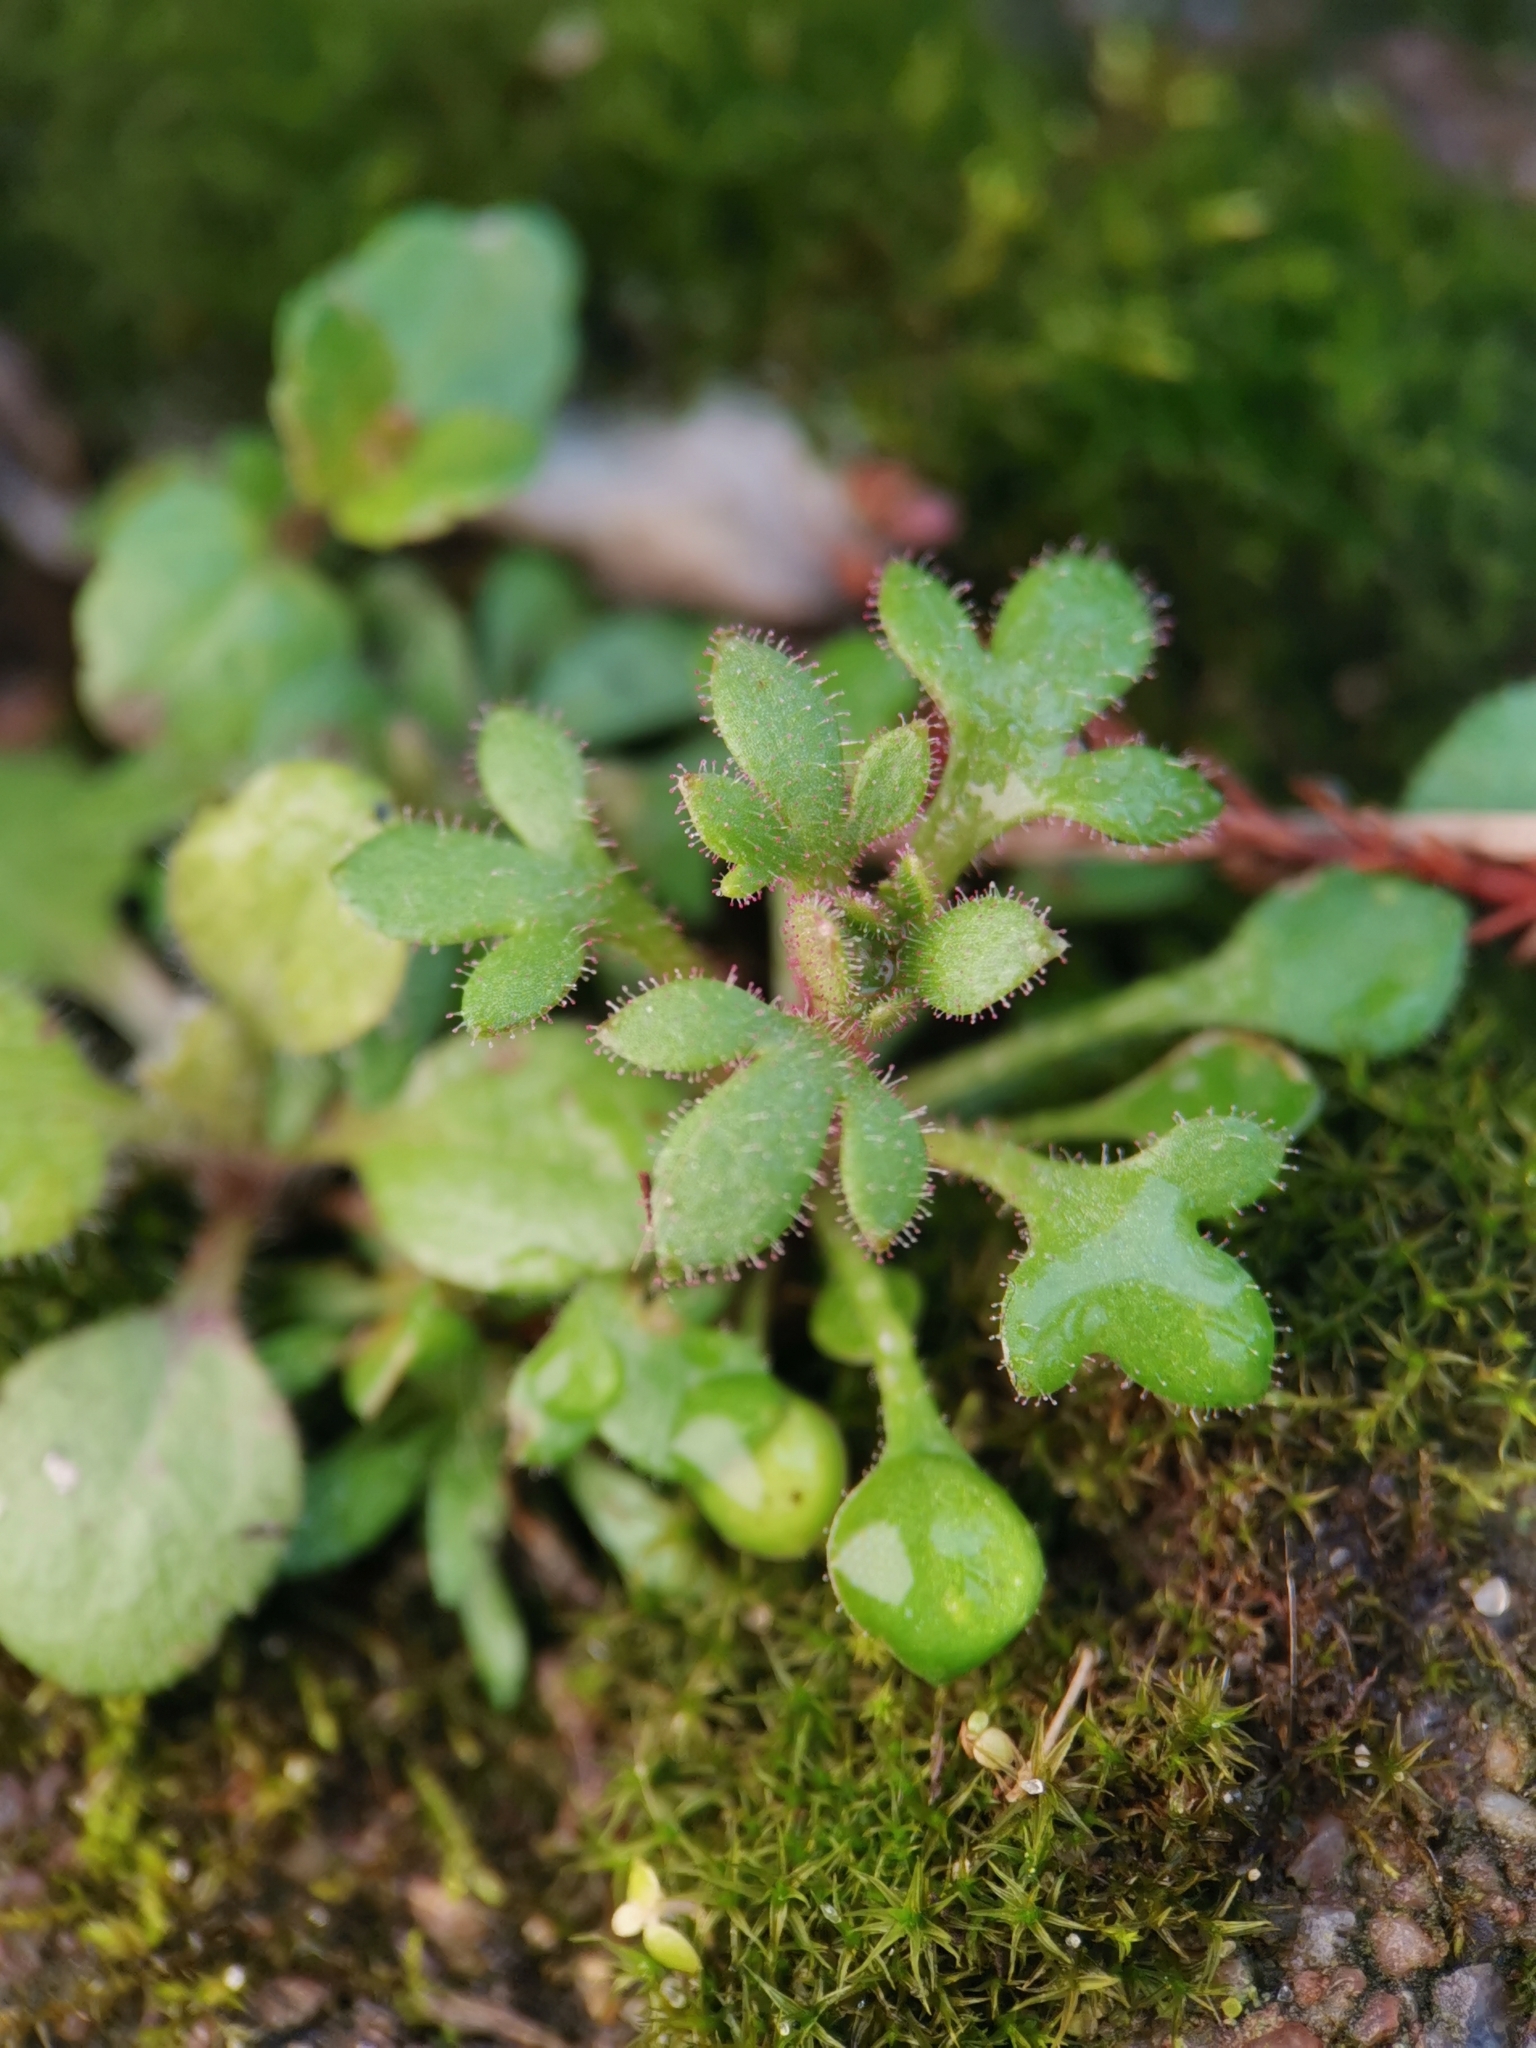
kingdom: Plantae
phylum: Tracheophyta
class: Magnoliopsida
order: Saxifragales
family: Saxifragaceae
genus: Saxifraga
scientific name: Saxifraga tridactylites
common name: Rue-leaved saxifrage
